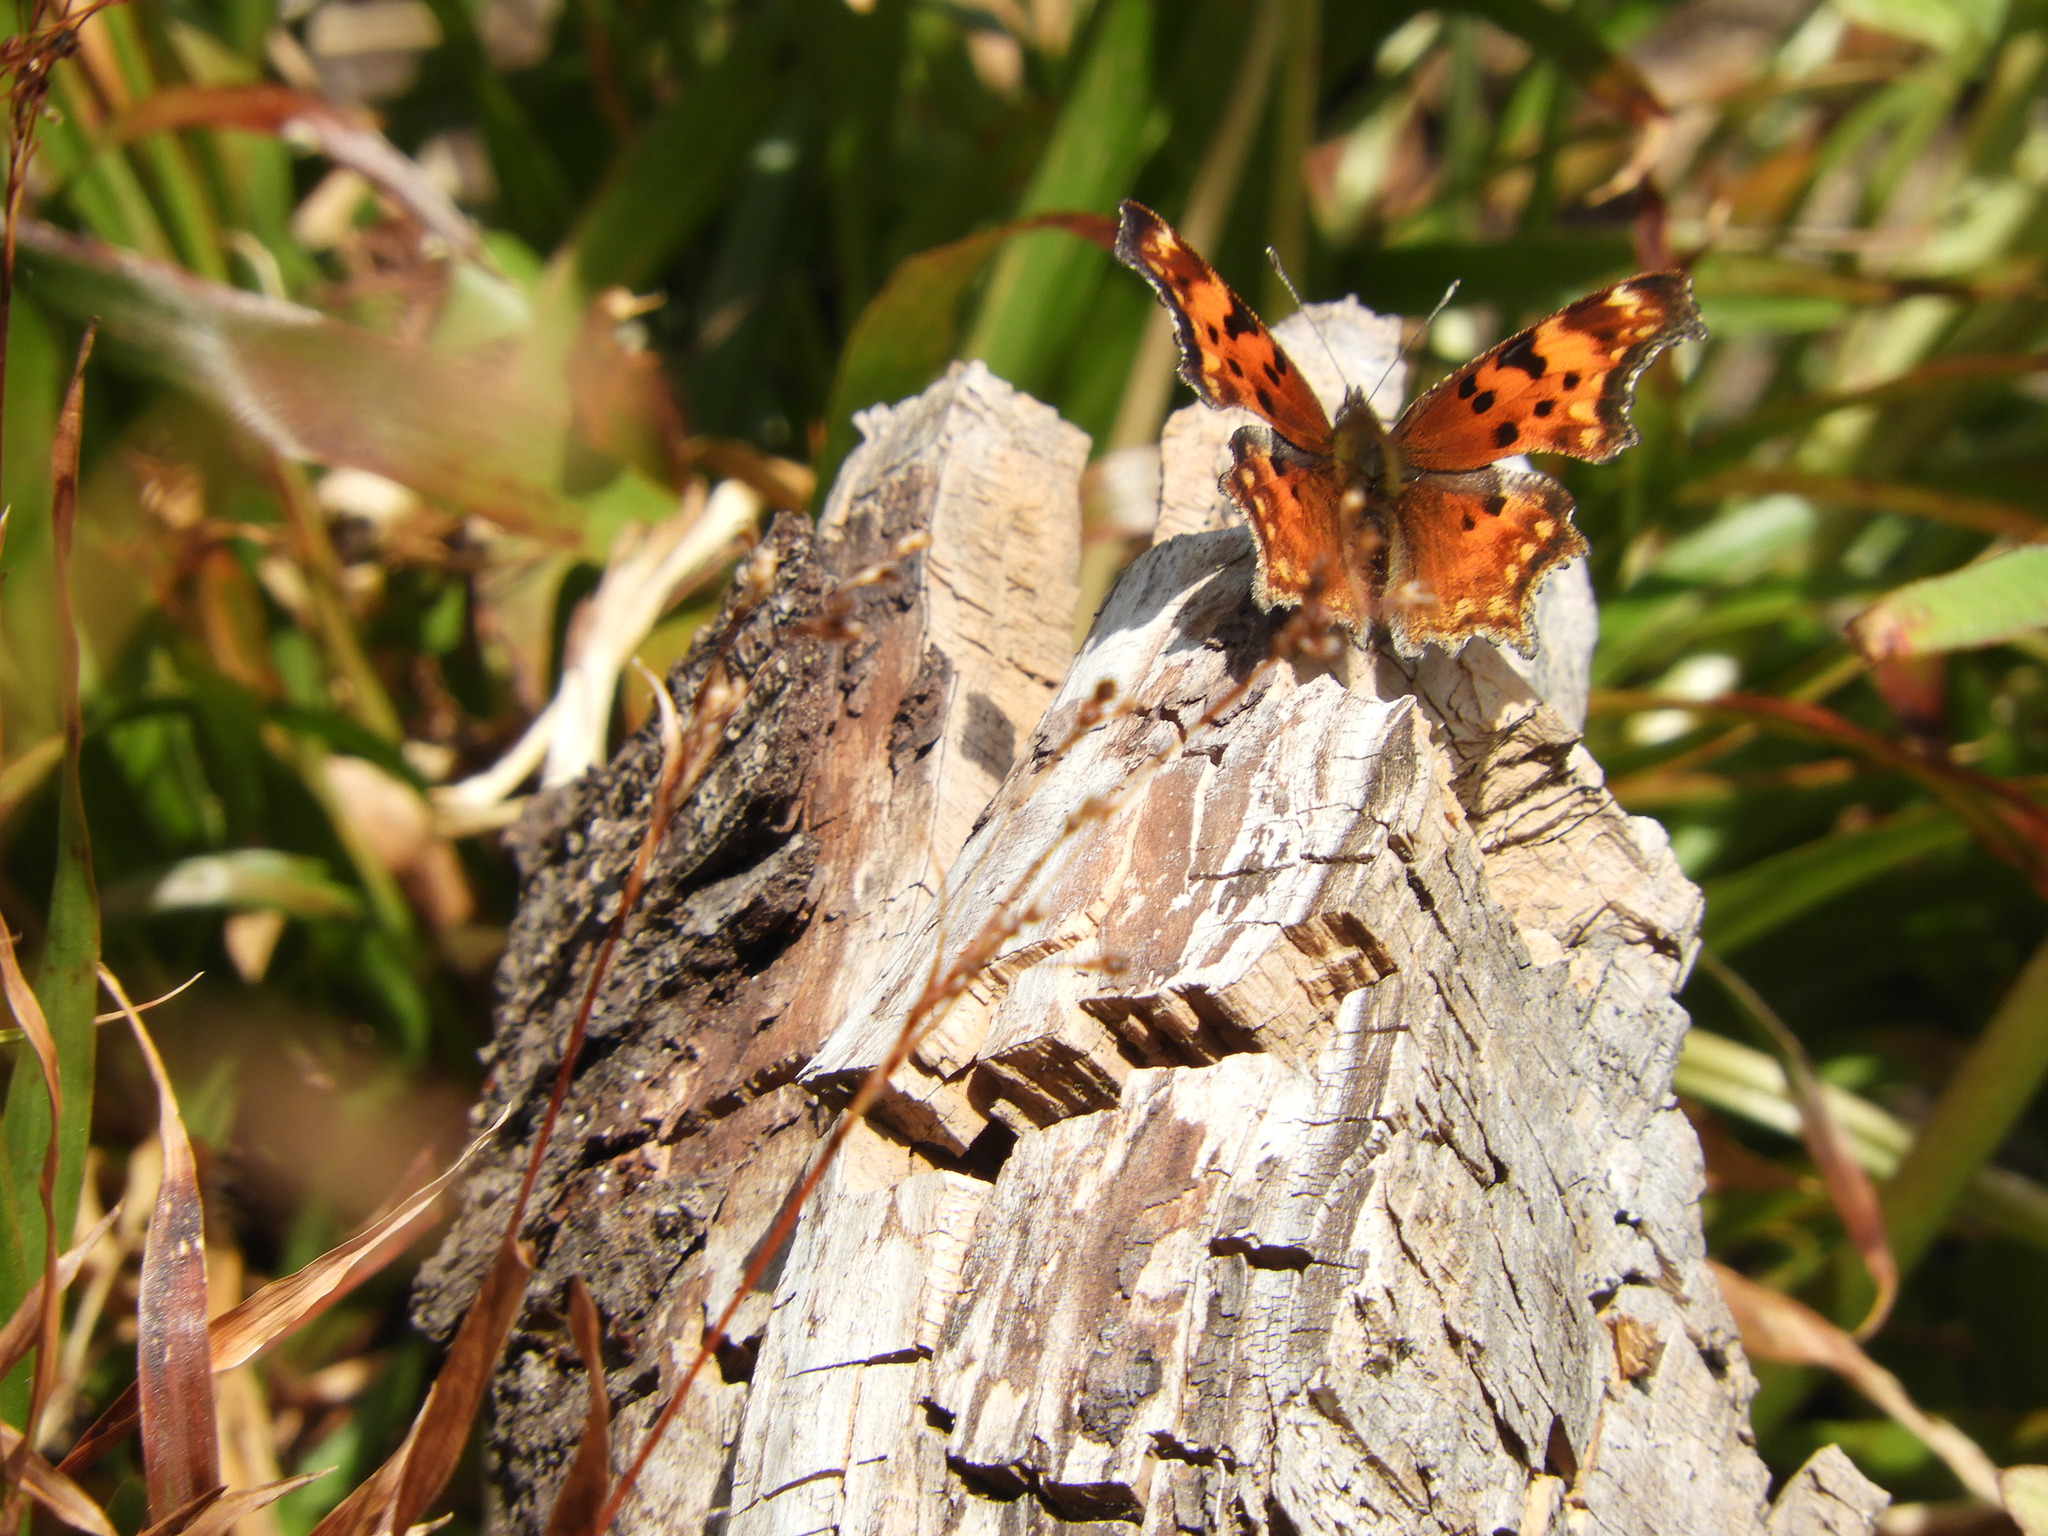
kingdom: Animalia
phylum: Arthropoda
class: Insecta
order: Lepidoptera
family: Nymphalidae
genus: Polygonia
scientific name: Polygonia gracilis
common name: Hoary comma
